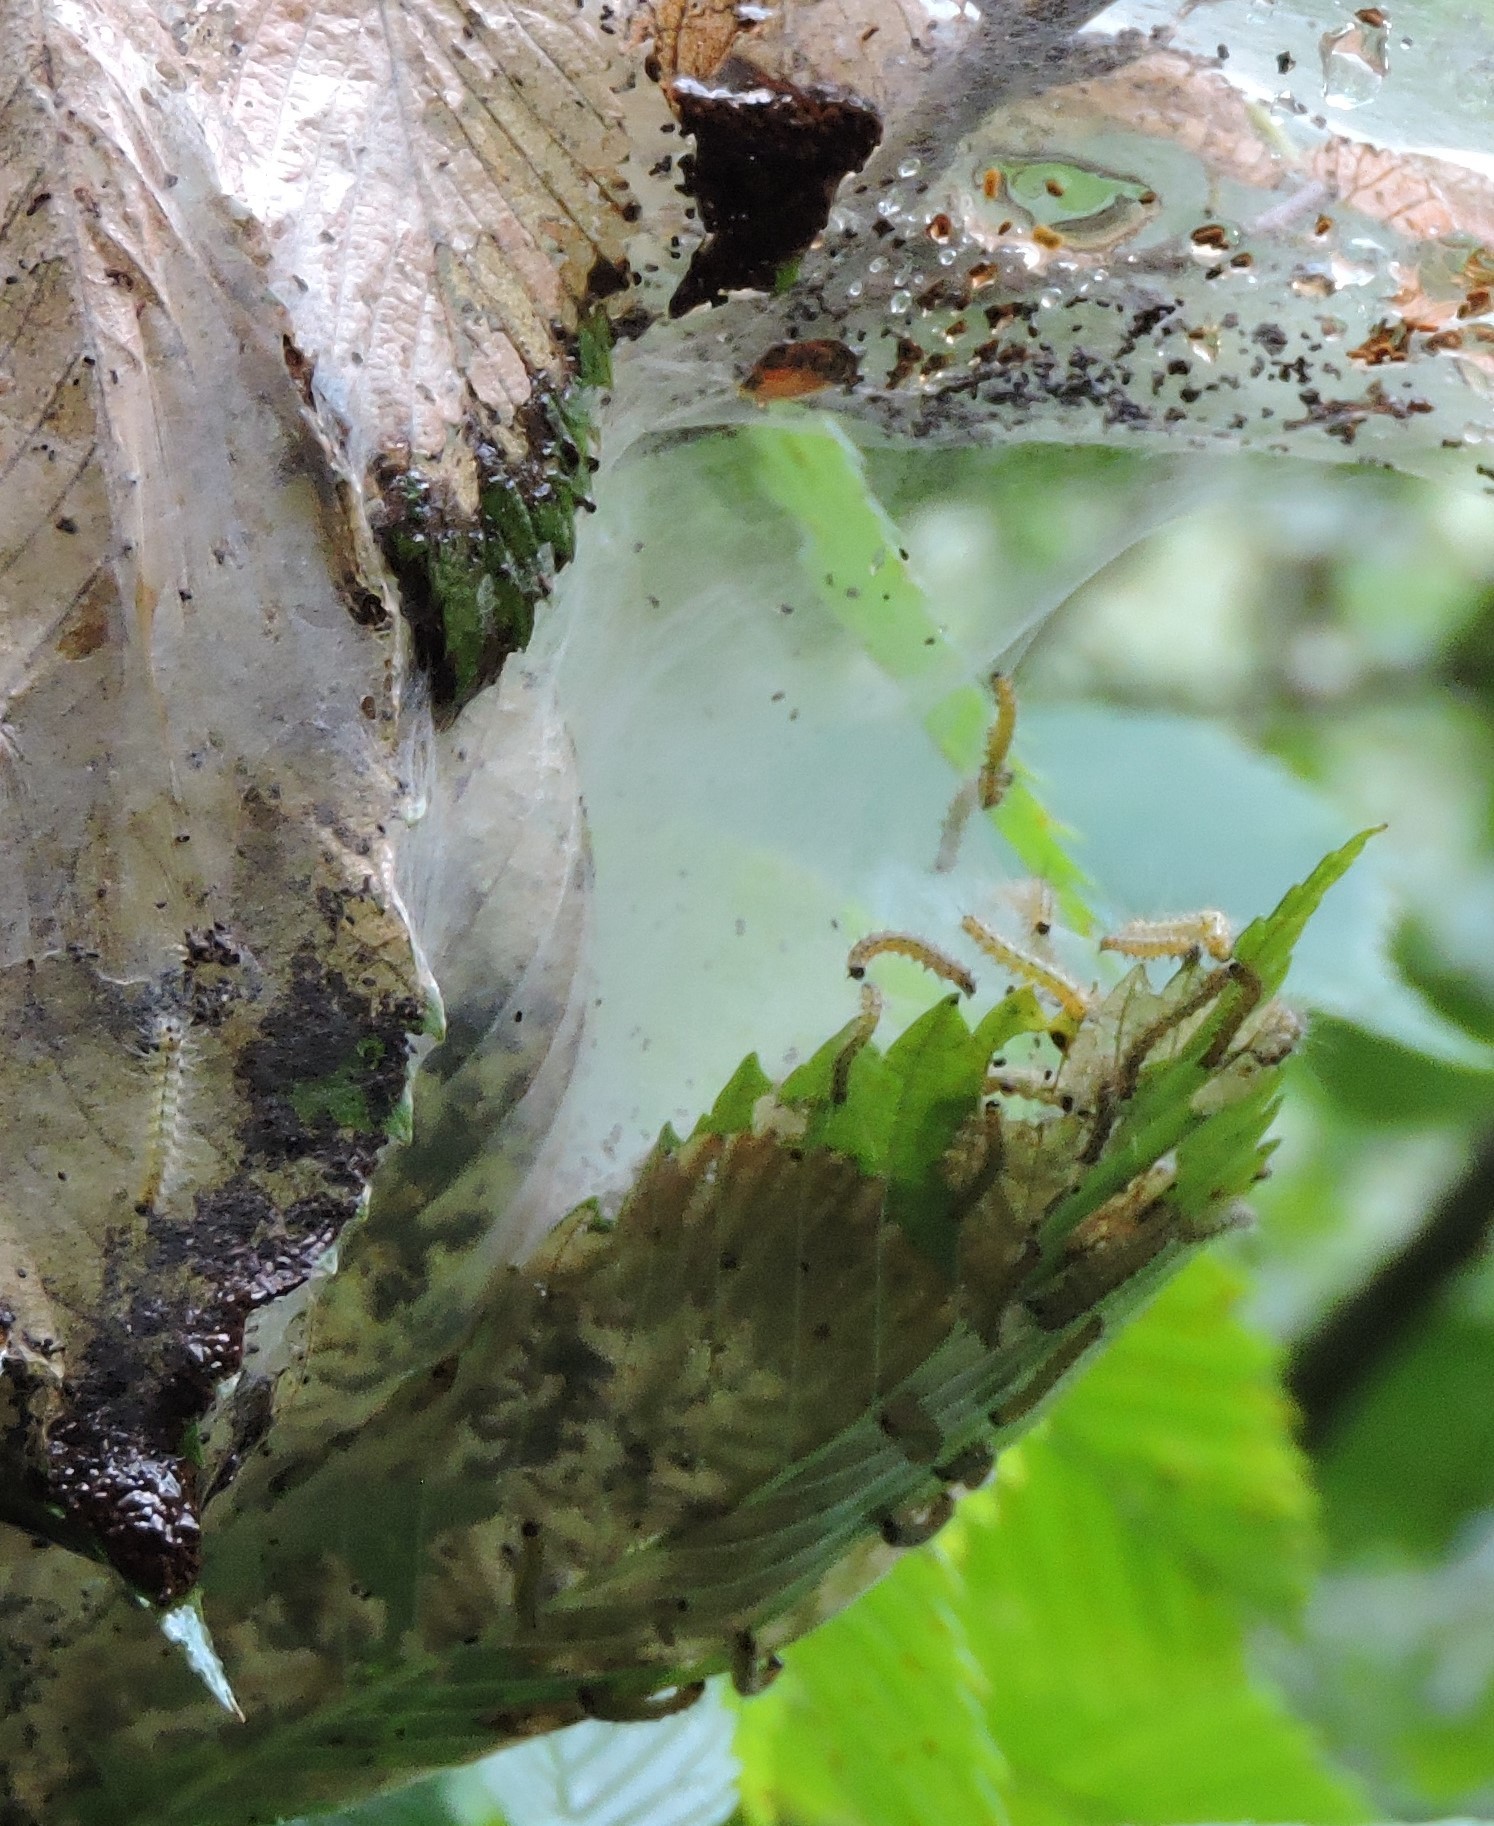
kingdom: Animalia
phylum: Arthropoda
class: Insecta
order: Lepidoptera
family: Erebidae
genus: Hyphantria
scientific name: Hyphantria cunea
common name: American white moth
